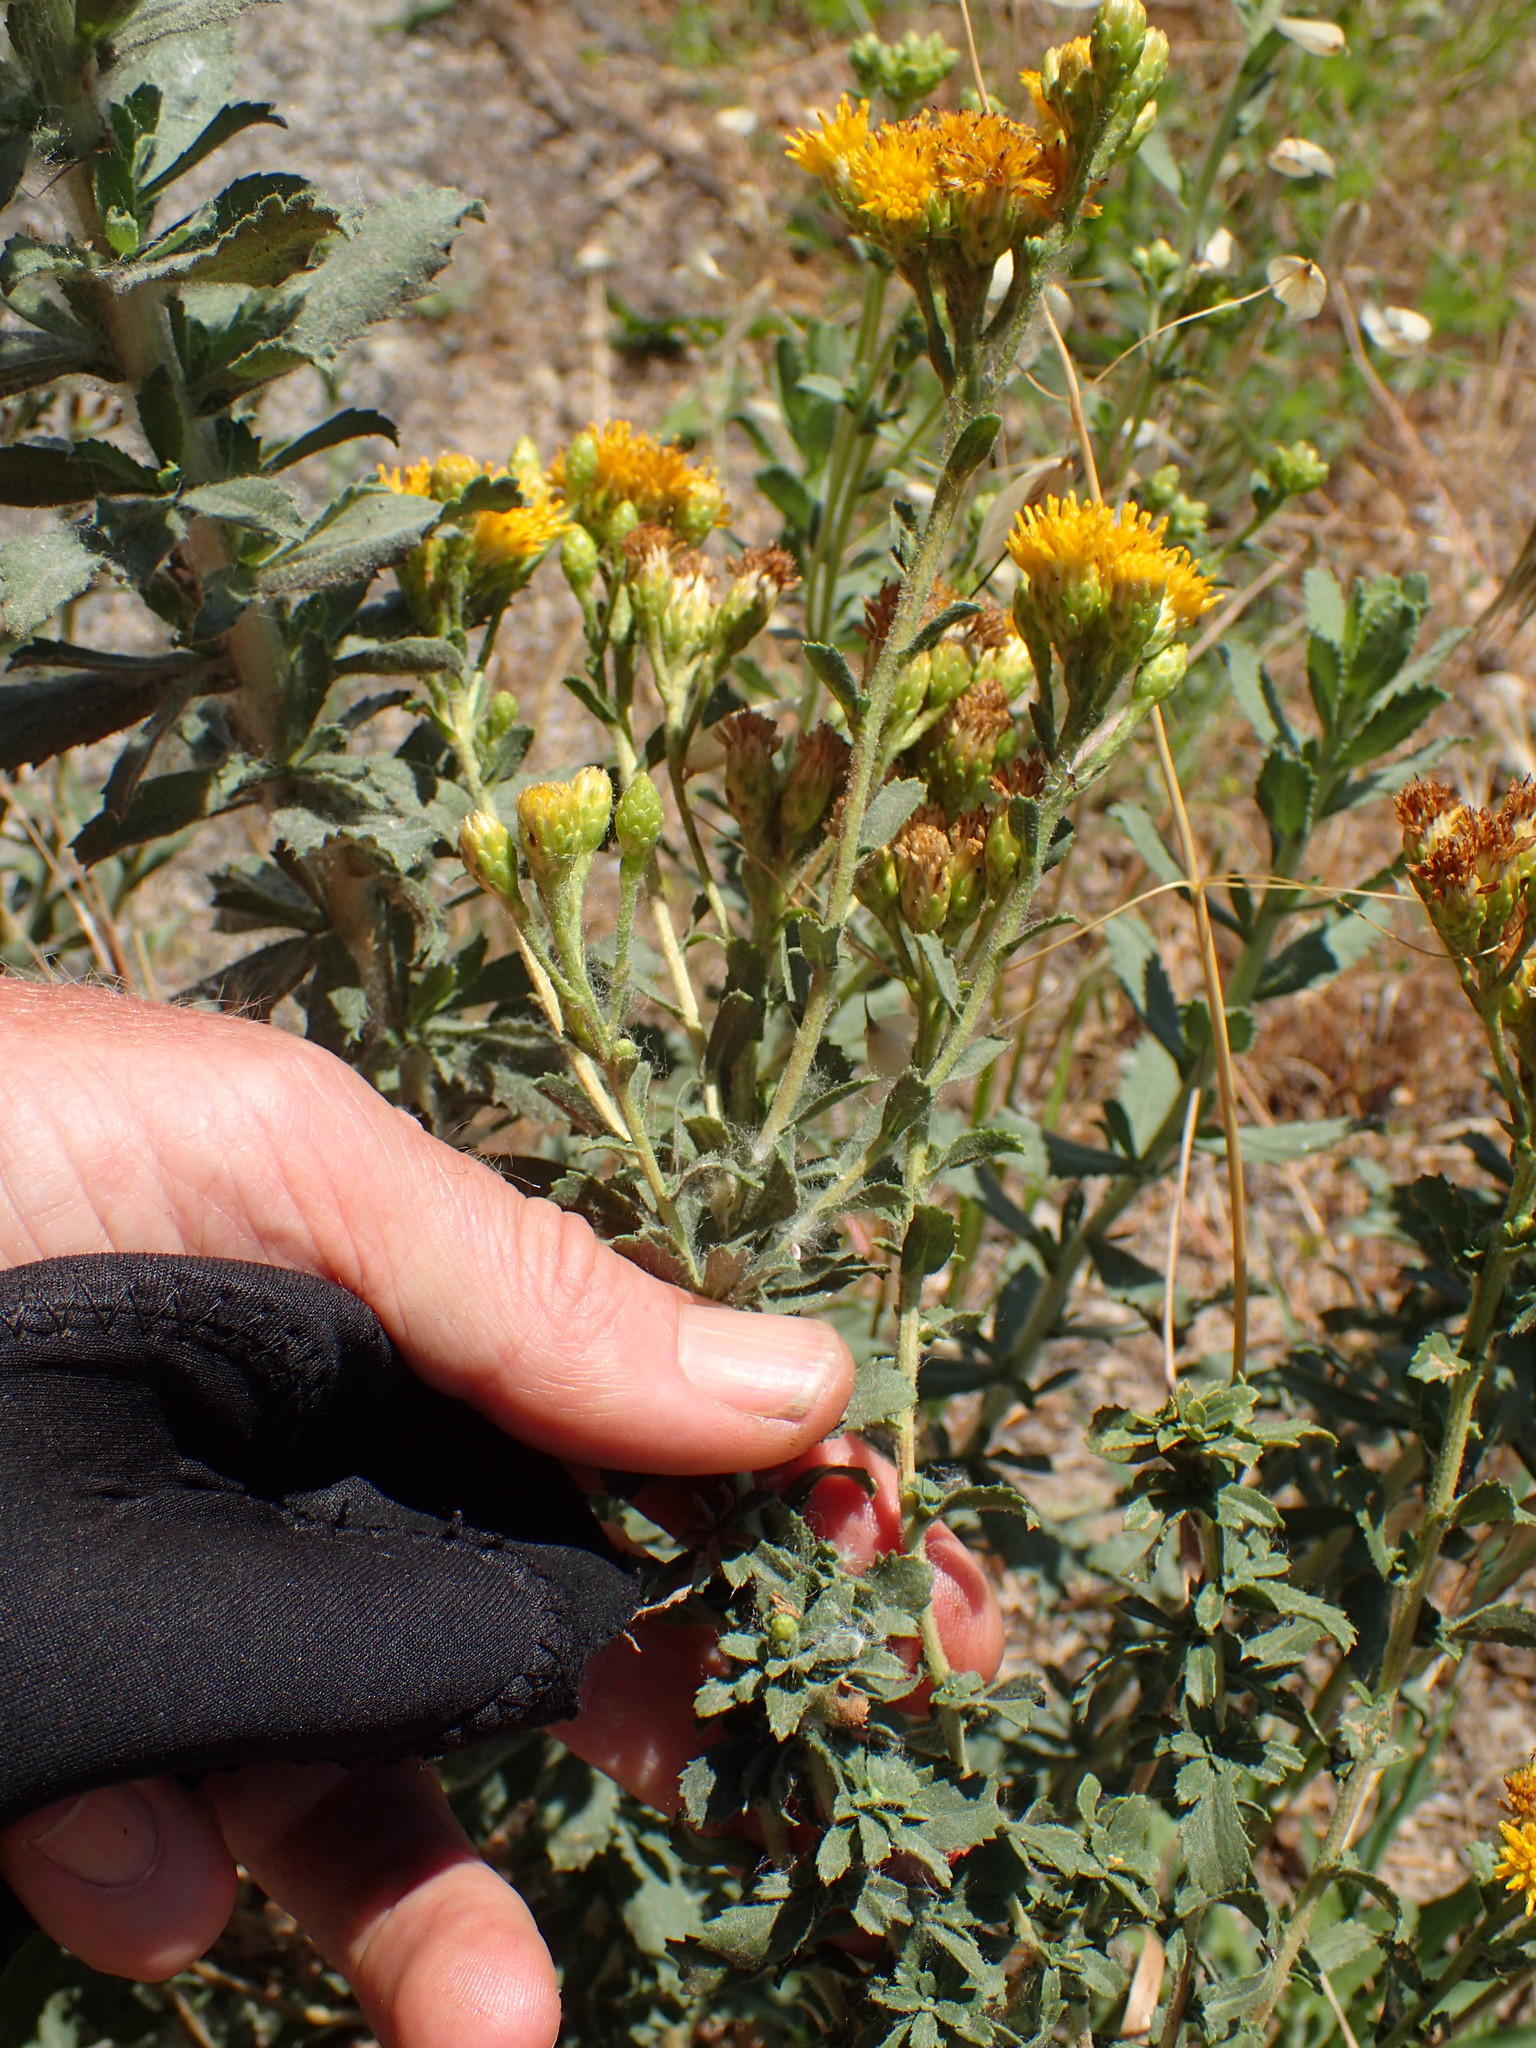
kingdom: Plantae
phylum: Tracheophyta
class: Magnoliopsida
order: Asterales
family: Asteraceae
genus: Isocoma
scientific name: Isocoma menziesii
